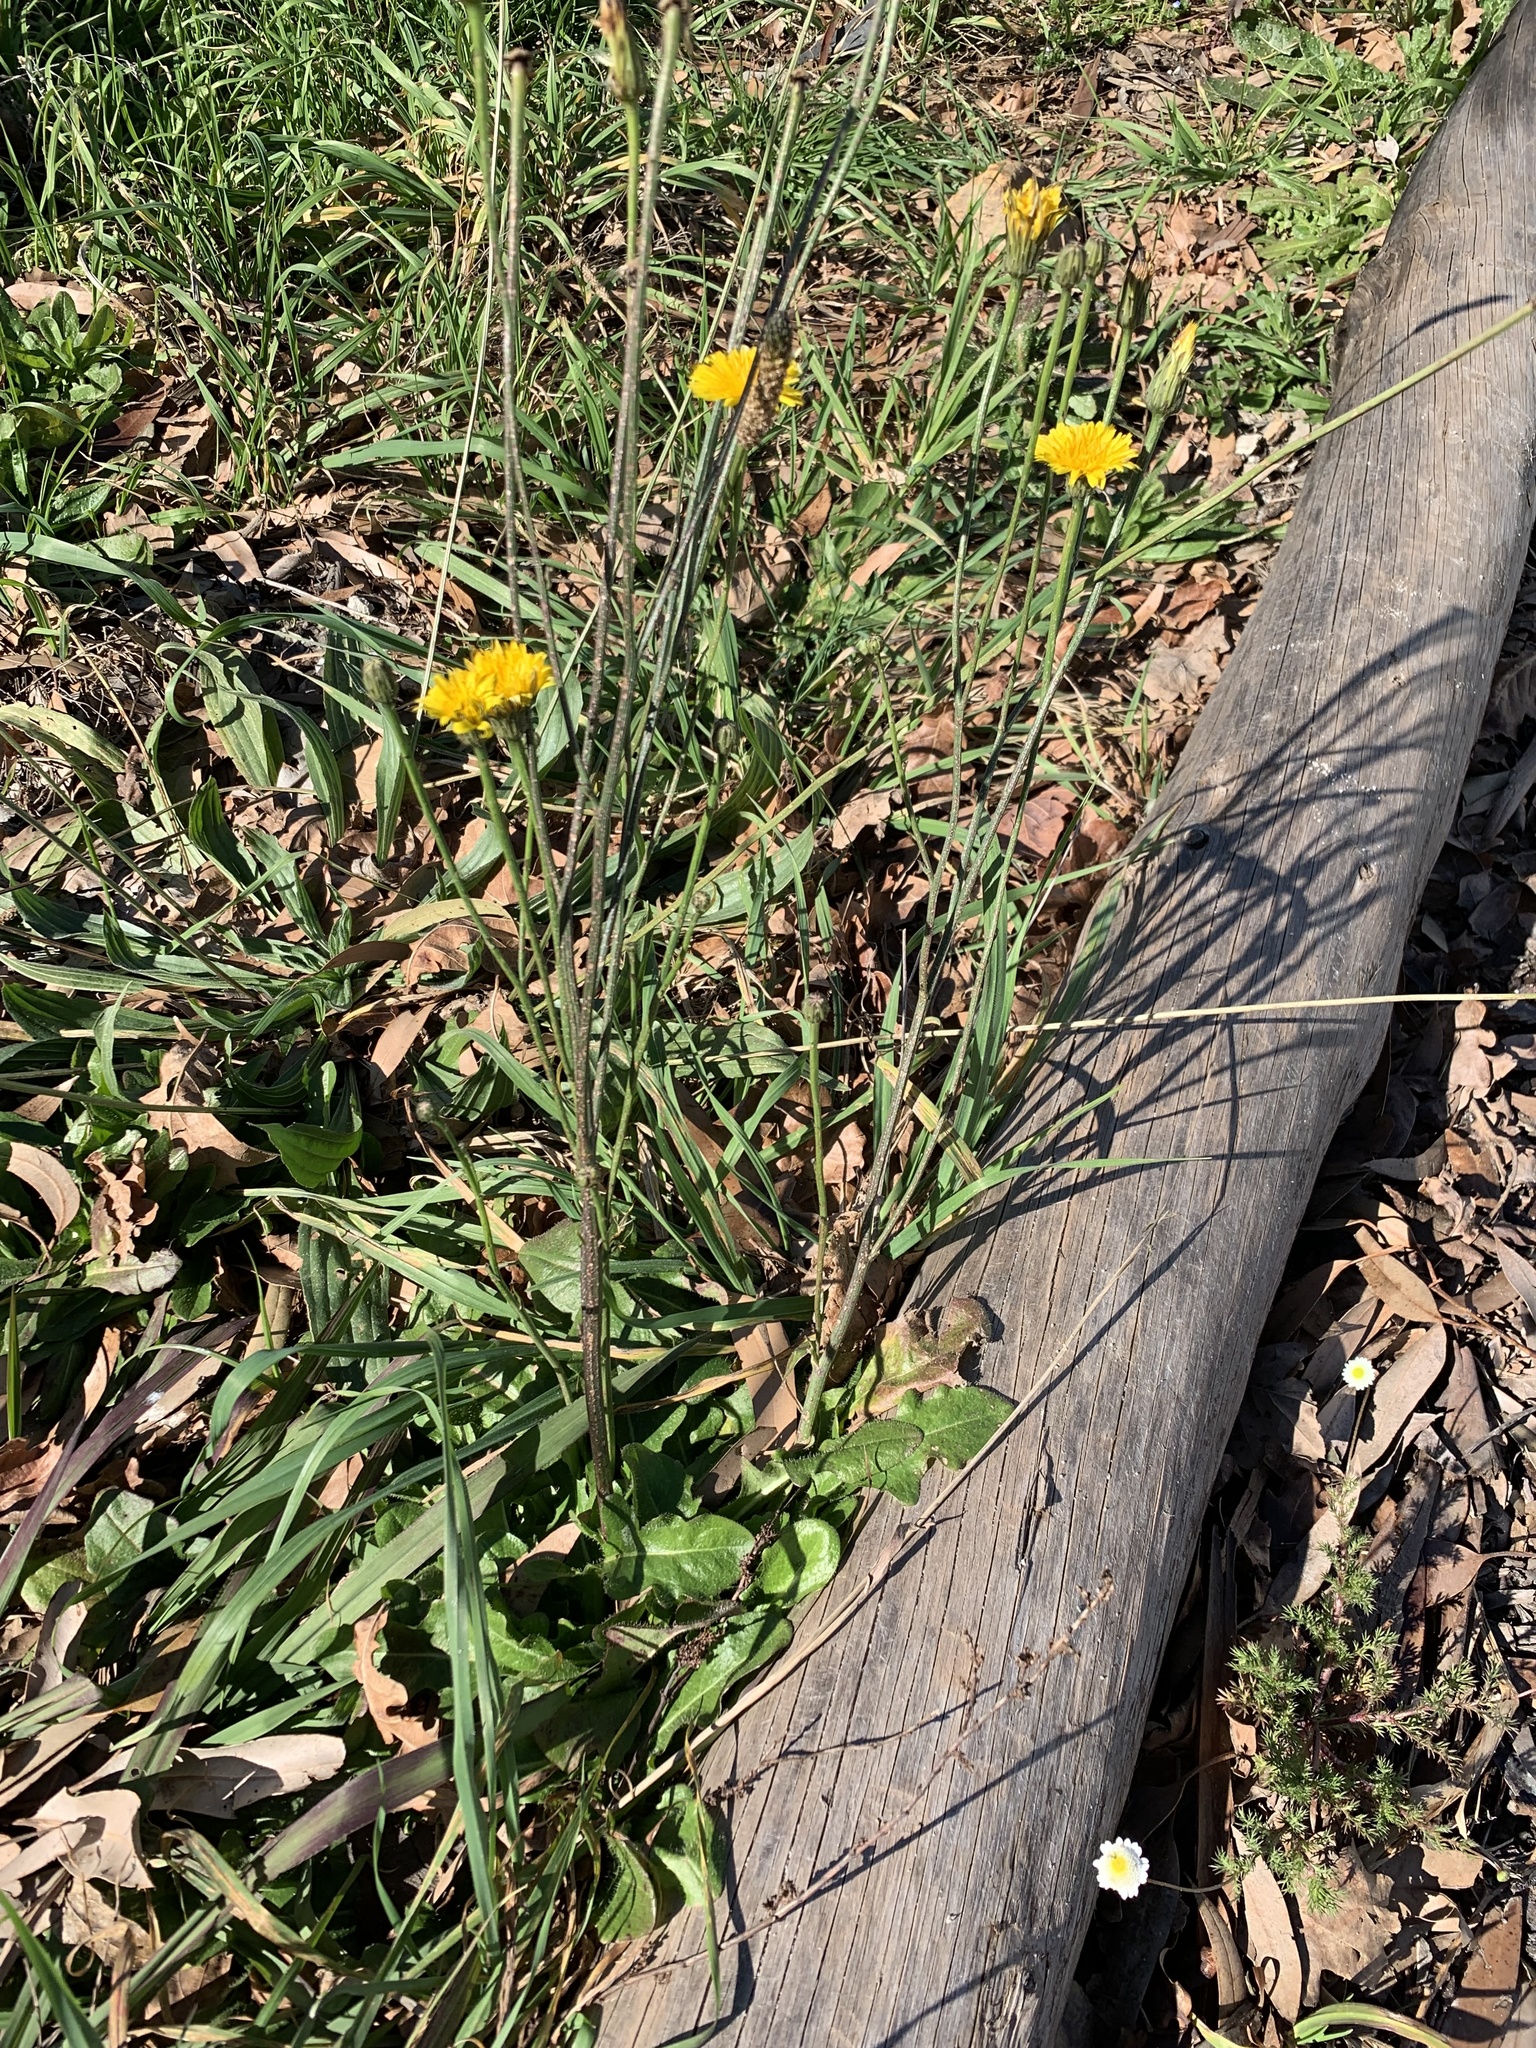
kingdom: Plantae
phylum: Tracheophyta
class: Magnoliopsida
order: Asterales
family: Asteraceae
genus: Hypochaeris
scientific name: Hypochaeris radicata
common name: Flatweed
